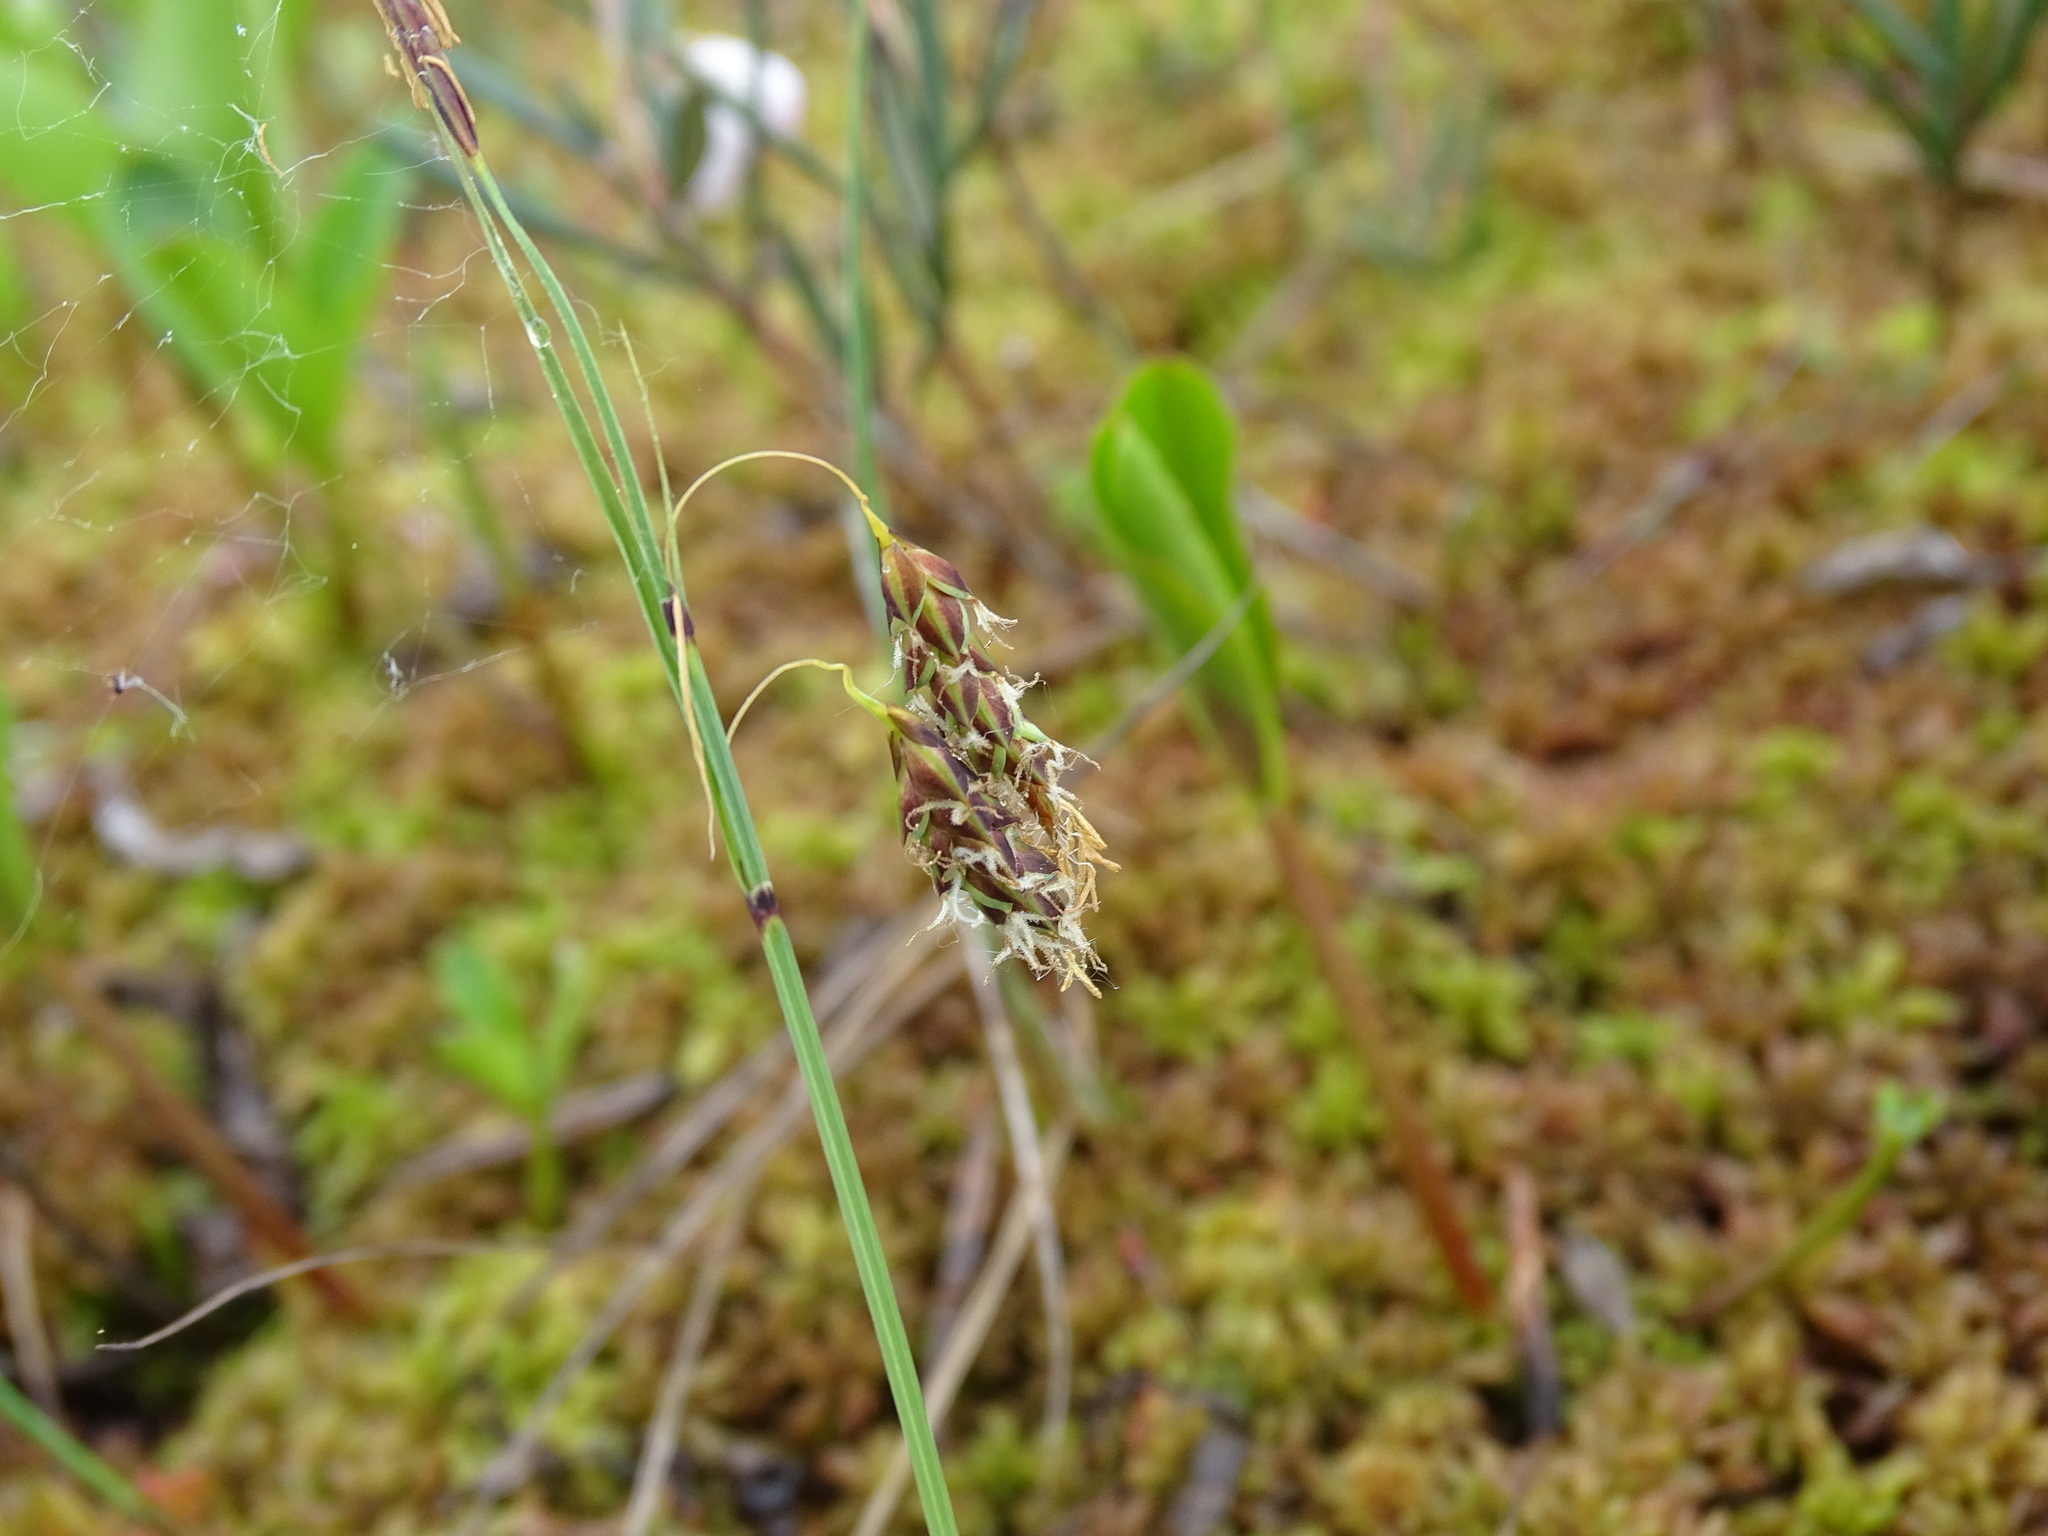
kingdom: Plantae
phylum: Tracheophyta
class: Liliopsida
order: Poales
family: Cyperaceae
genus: Carex
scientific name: Carex limosa
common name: Bog sedge
